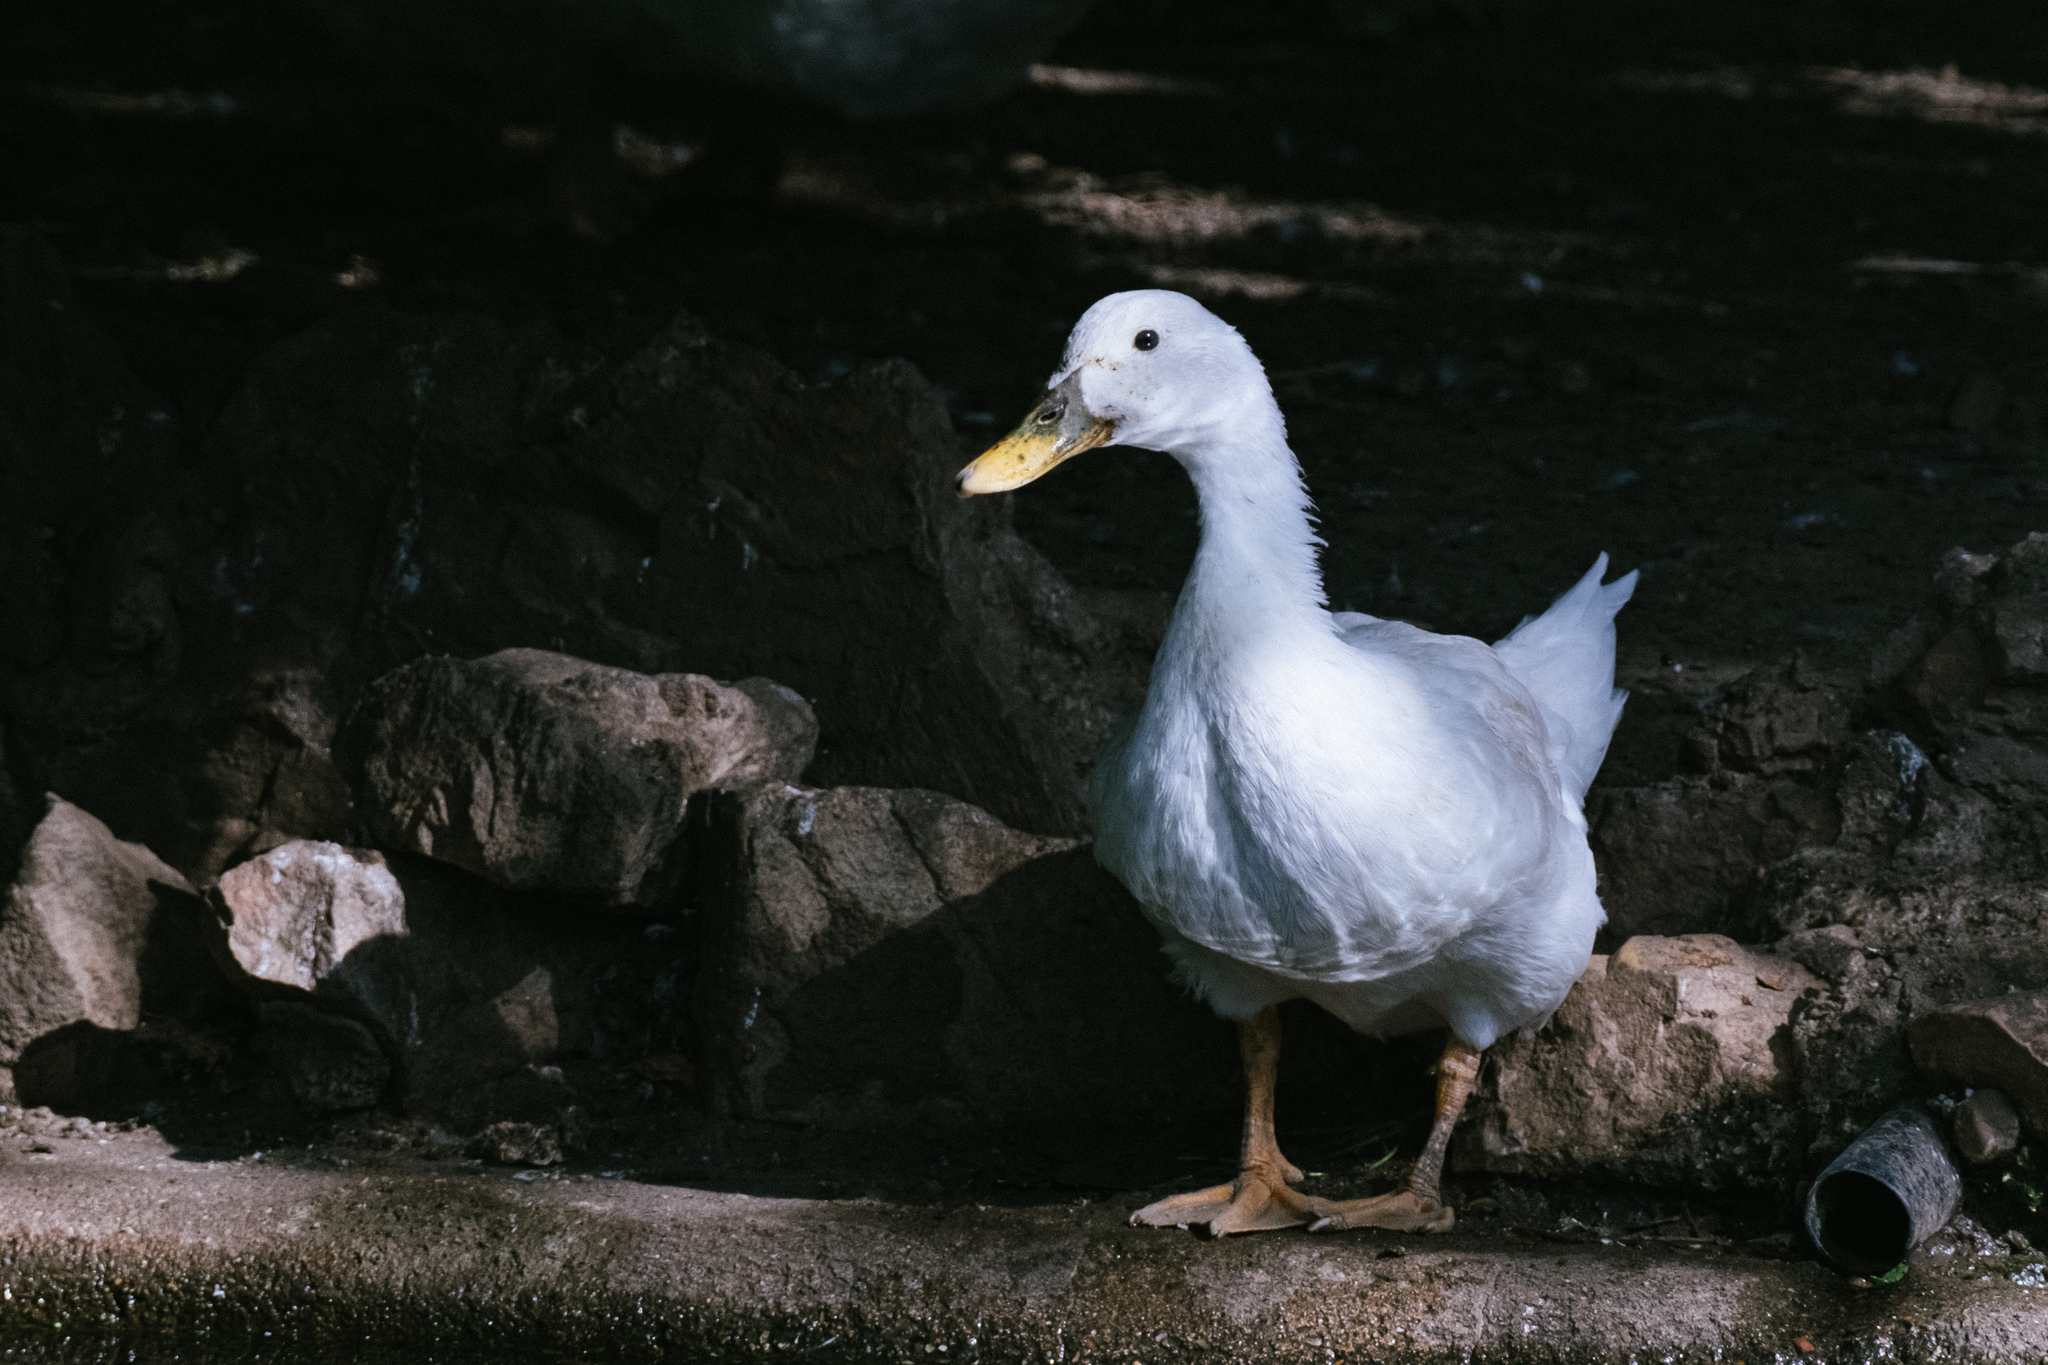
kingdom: Animalia
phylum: Chordata
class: Aves
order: Anseriformes
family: Anatidae
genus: Anas
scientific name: Anas platyrhynchos
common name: Mallard
